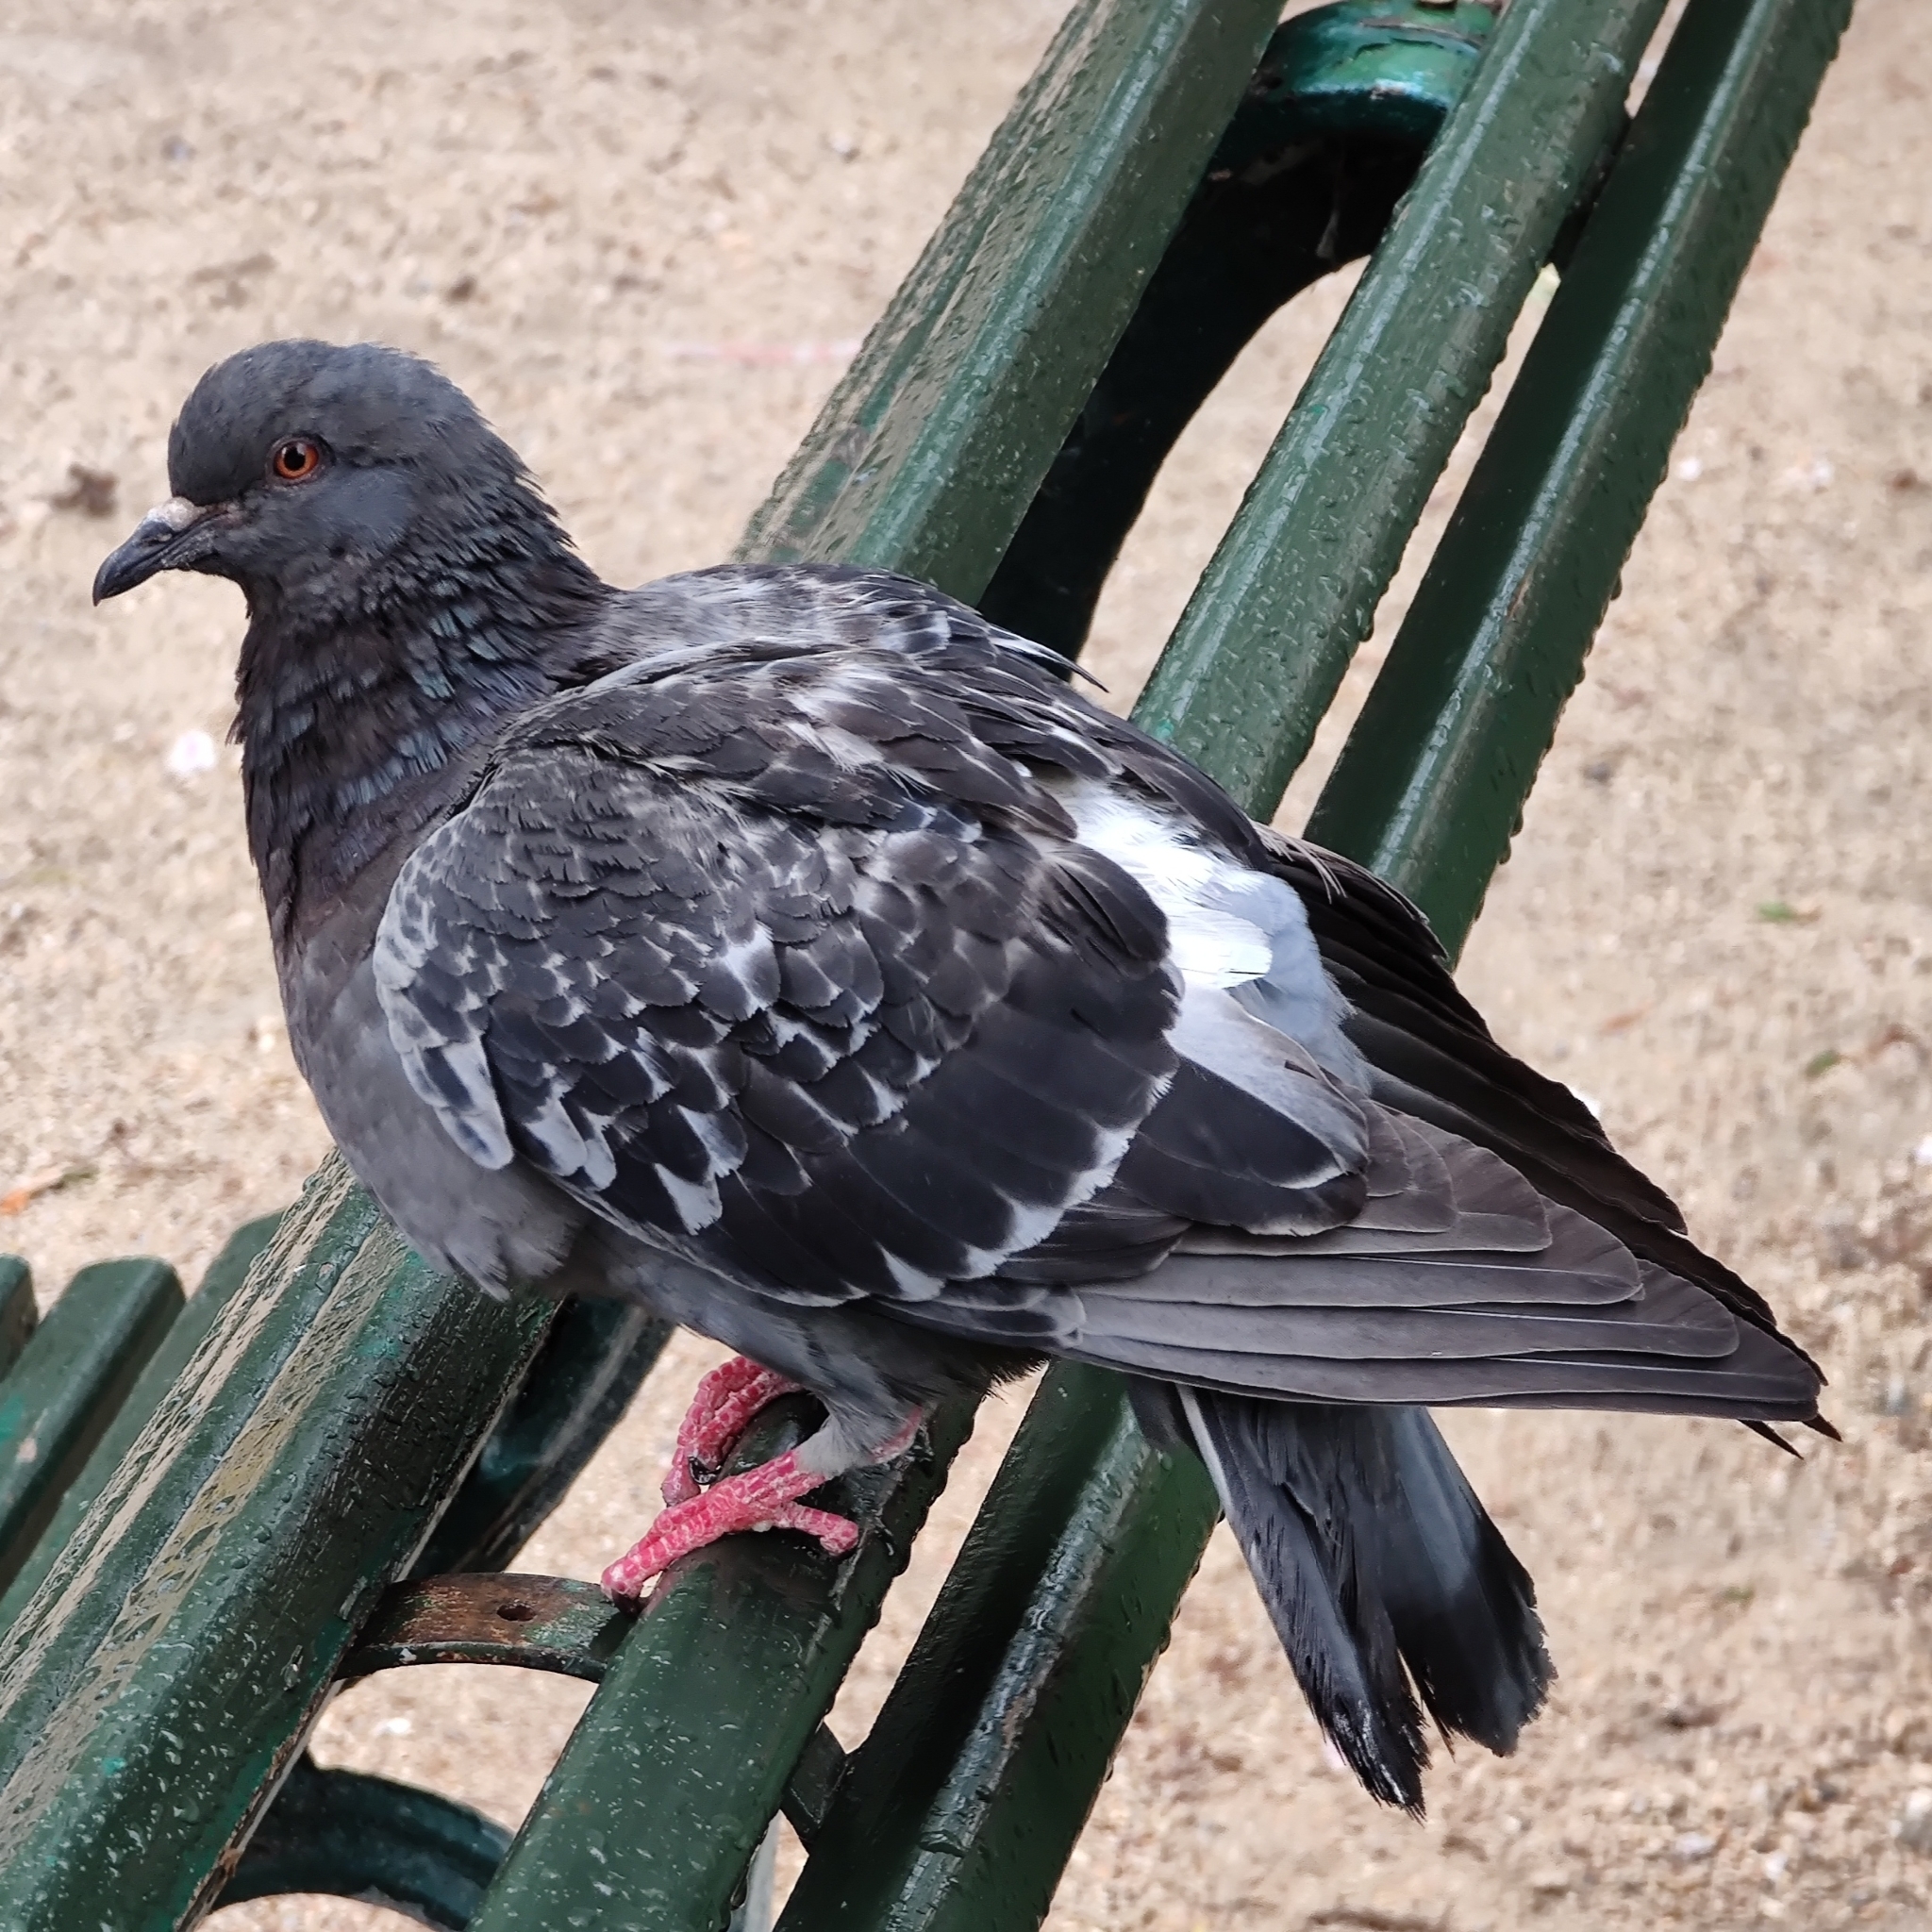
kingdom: Animalia
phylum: Chordata
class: Aves
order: Columbiformes
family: Columbidae
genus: Columba
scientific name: Columba livia
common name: Rock pigeon
